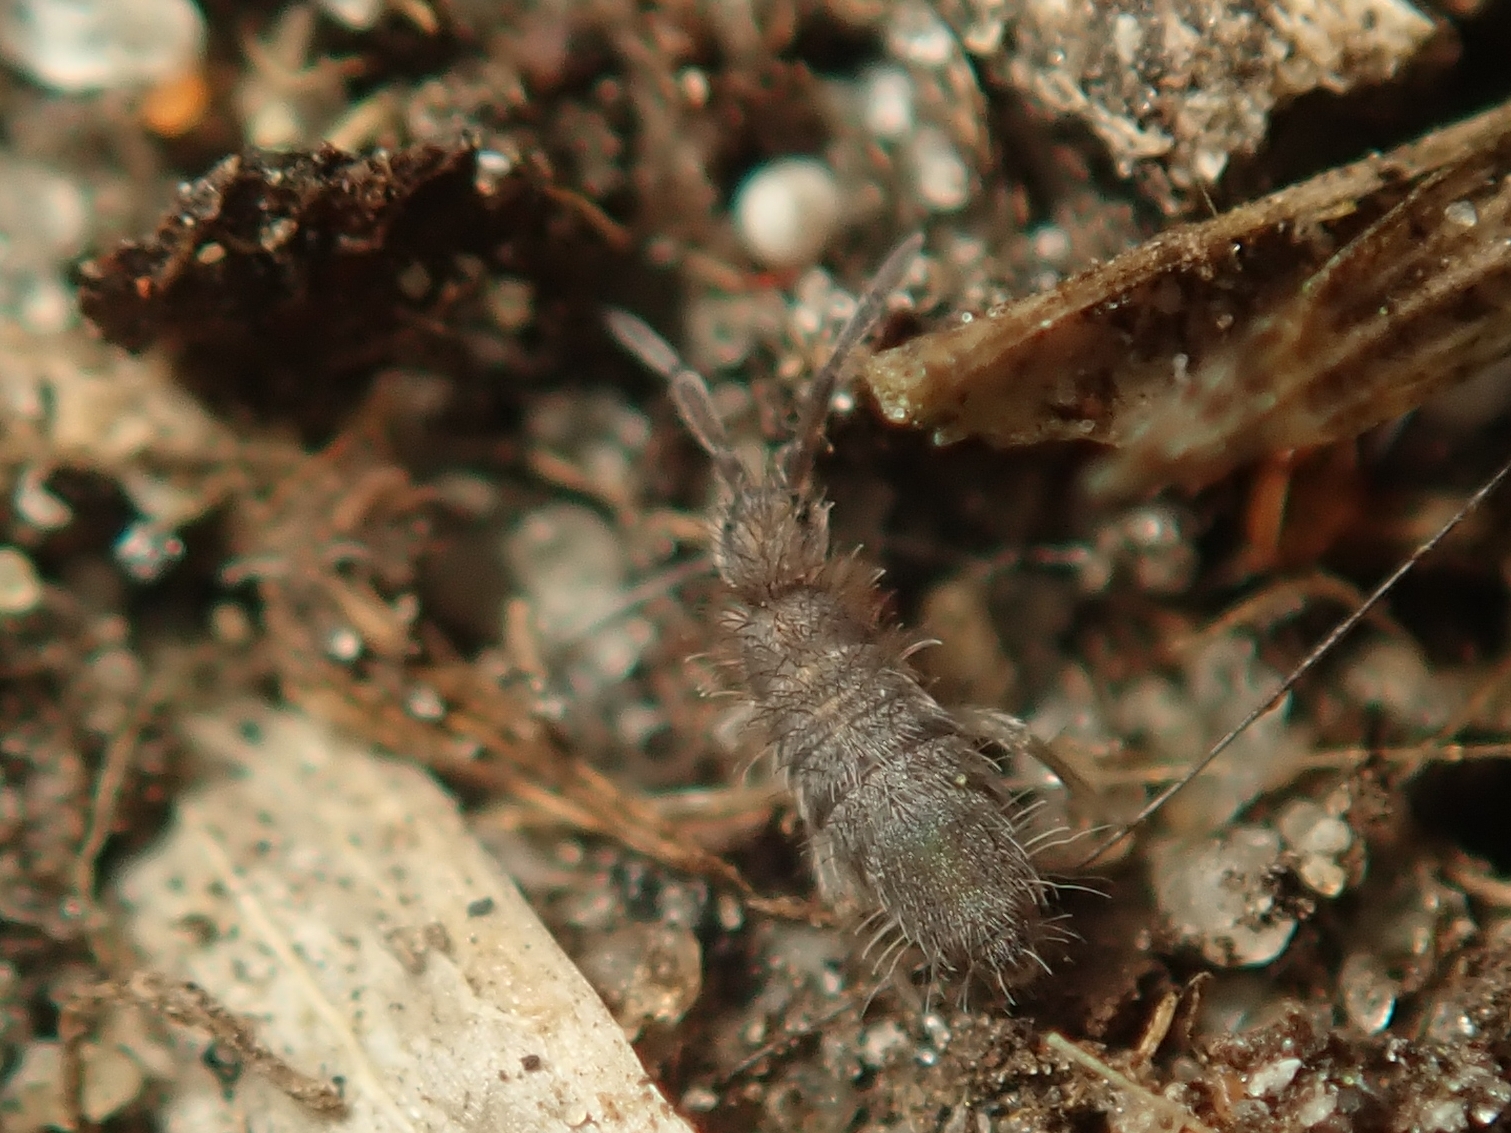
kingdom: Animalia
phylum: Arthropoda
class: Collembola
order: Entomobryomorpha
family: Entomobryidae
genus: Entomobrya
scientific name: Entomobrya schoetti
